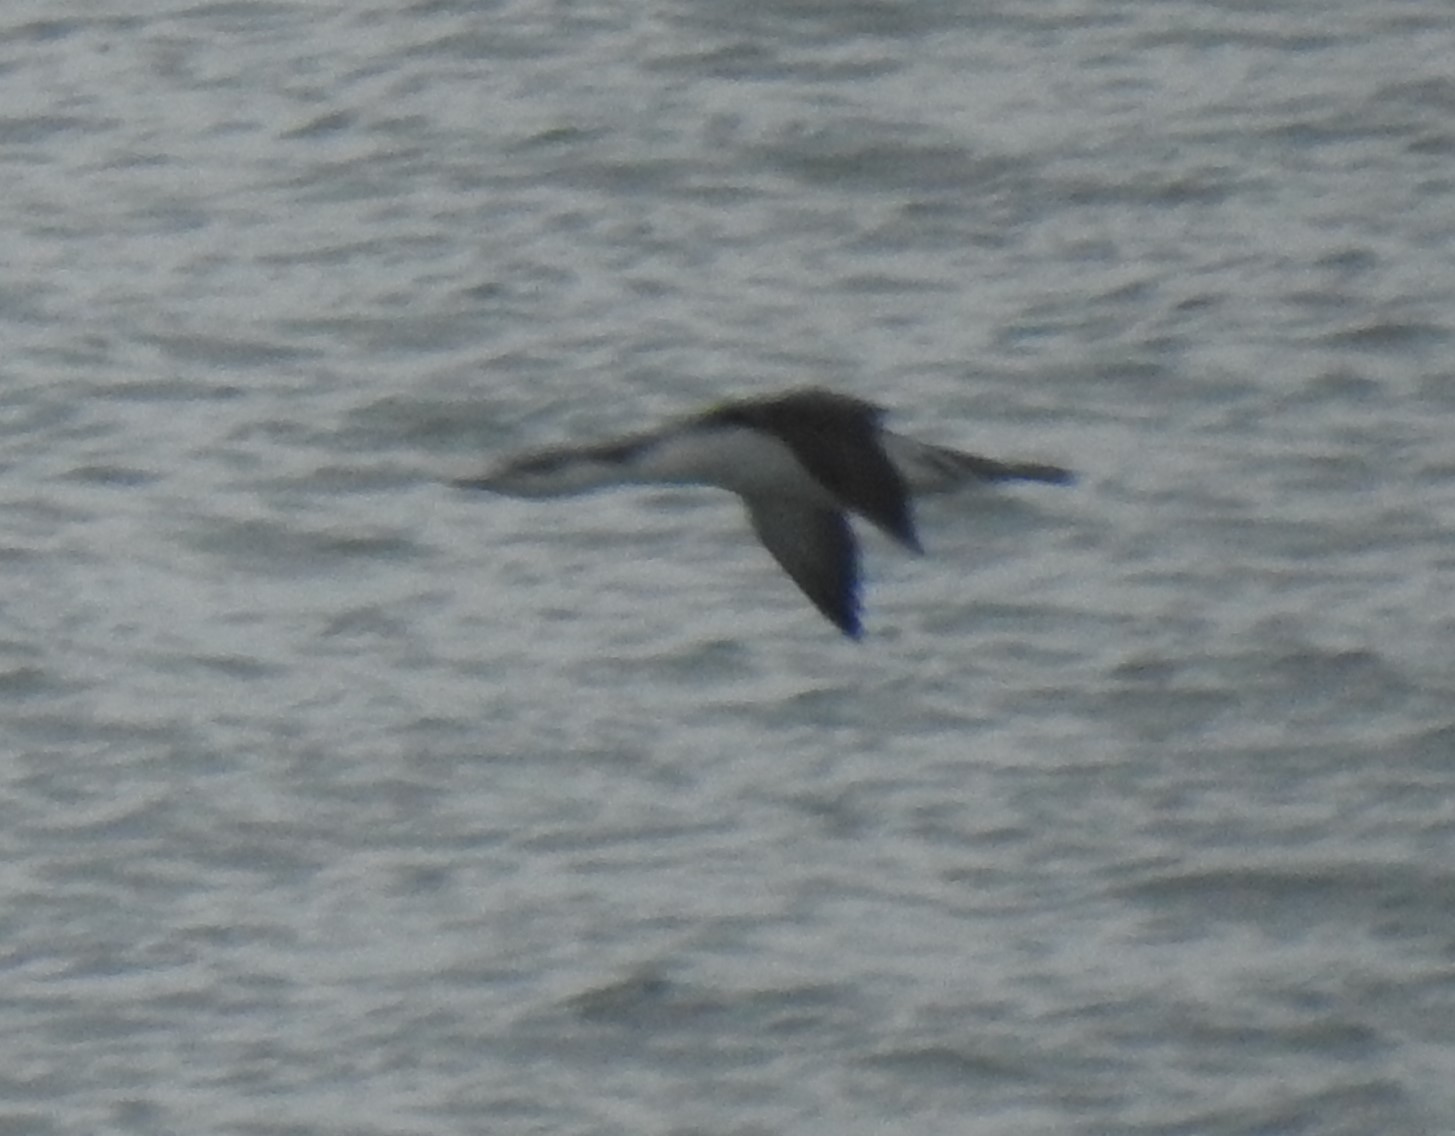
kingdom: Animalia
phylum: Chordata
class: Aves
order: Gaviiformes
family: Gaviidae
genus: Gavia
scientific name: Gavia stellata
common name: Red-throated loon
